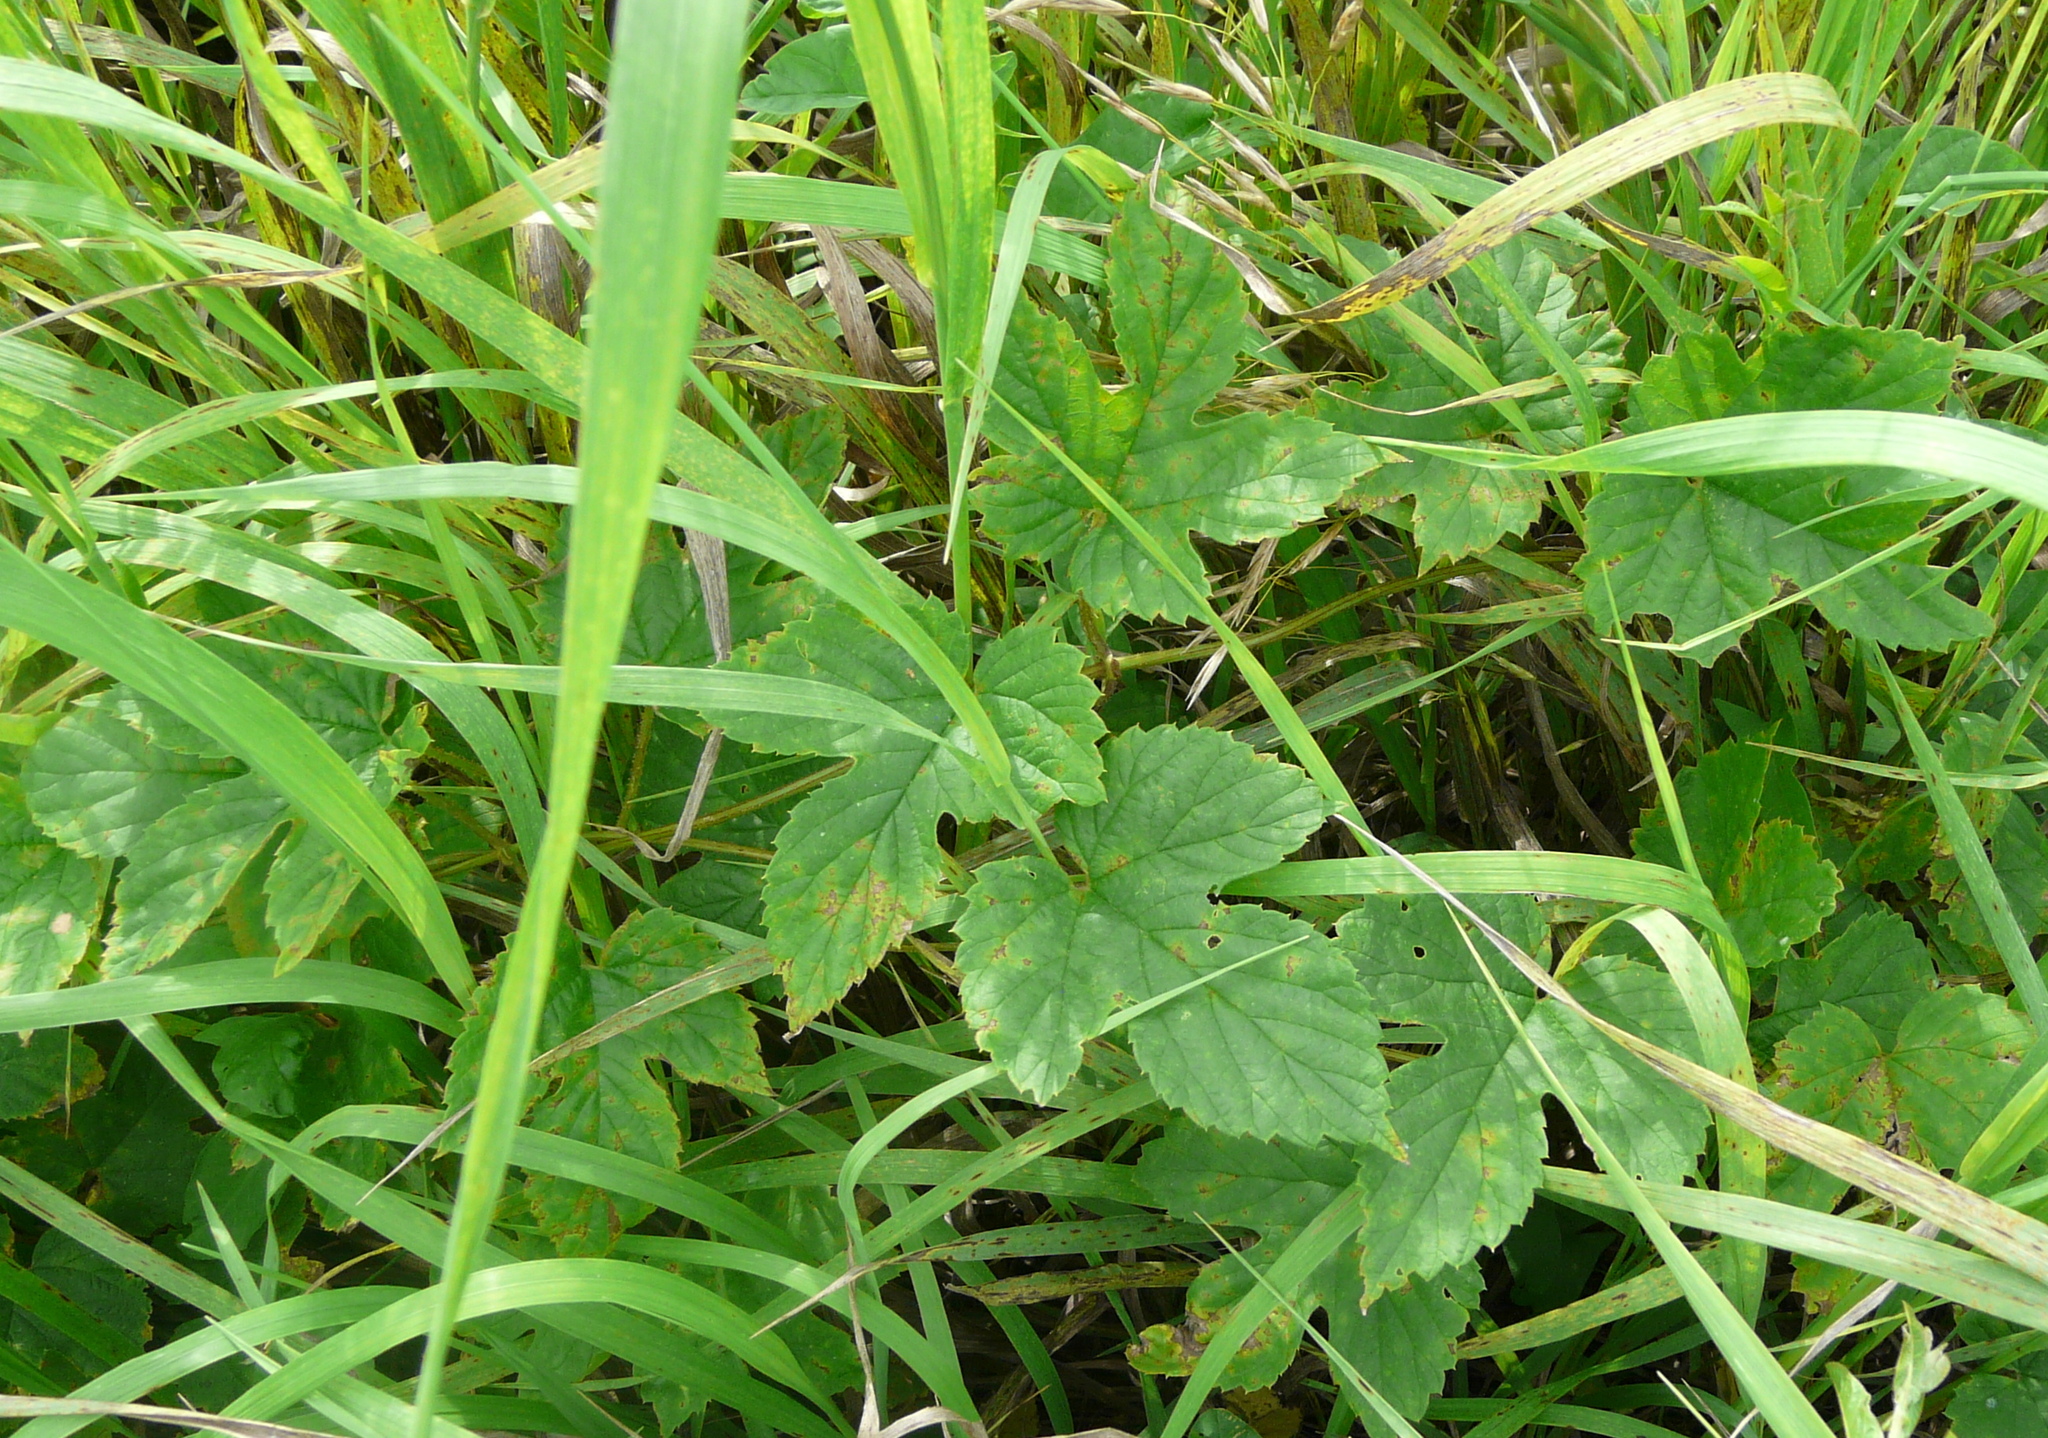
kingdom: Plantae
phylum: Tracheophyta
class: Magnoliopsida
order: Rosales
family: Cannabaceae
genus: Humulus
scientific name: Humulus lupulus
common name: Hop
